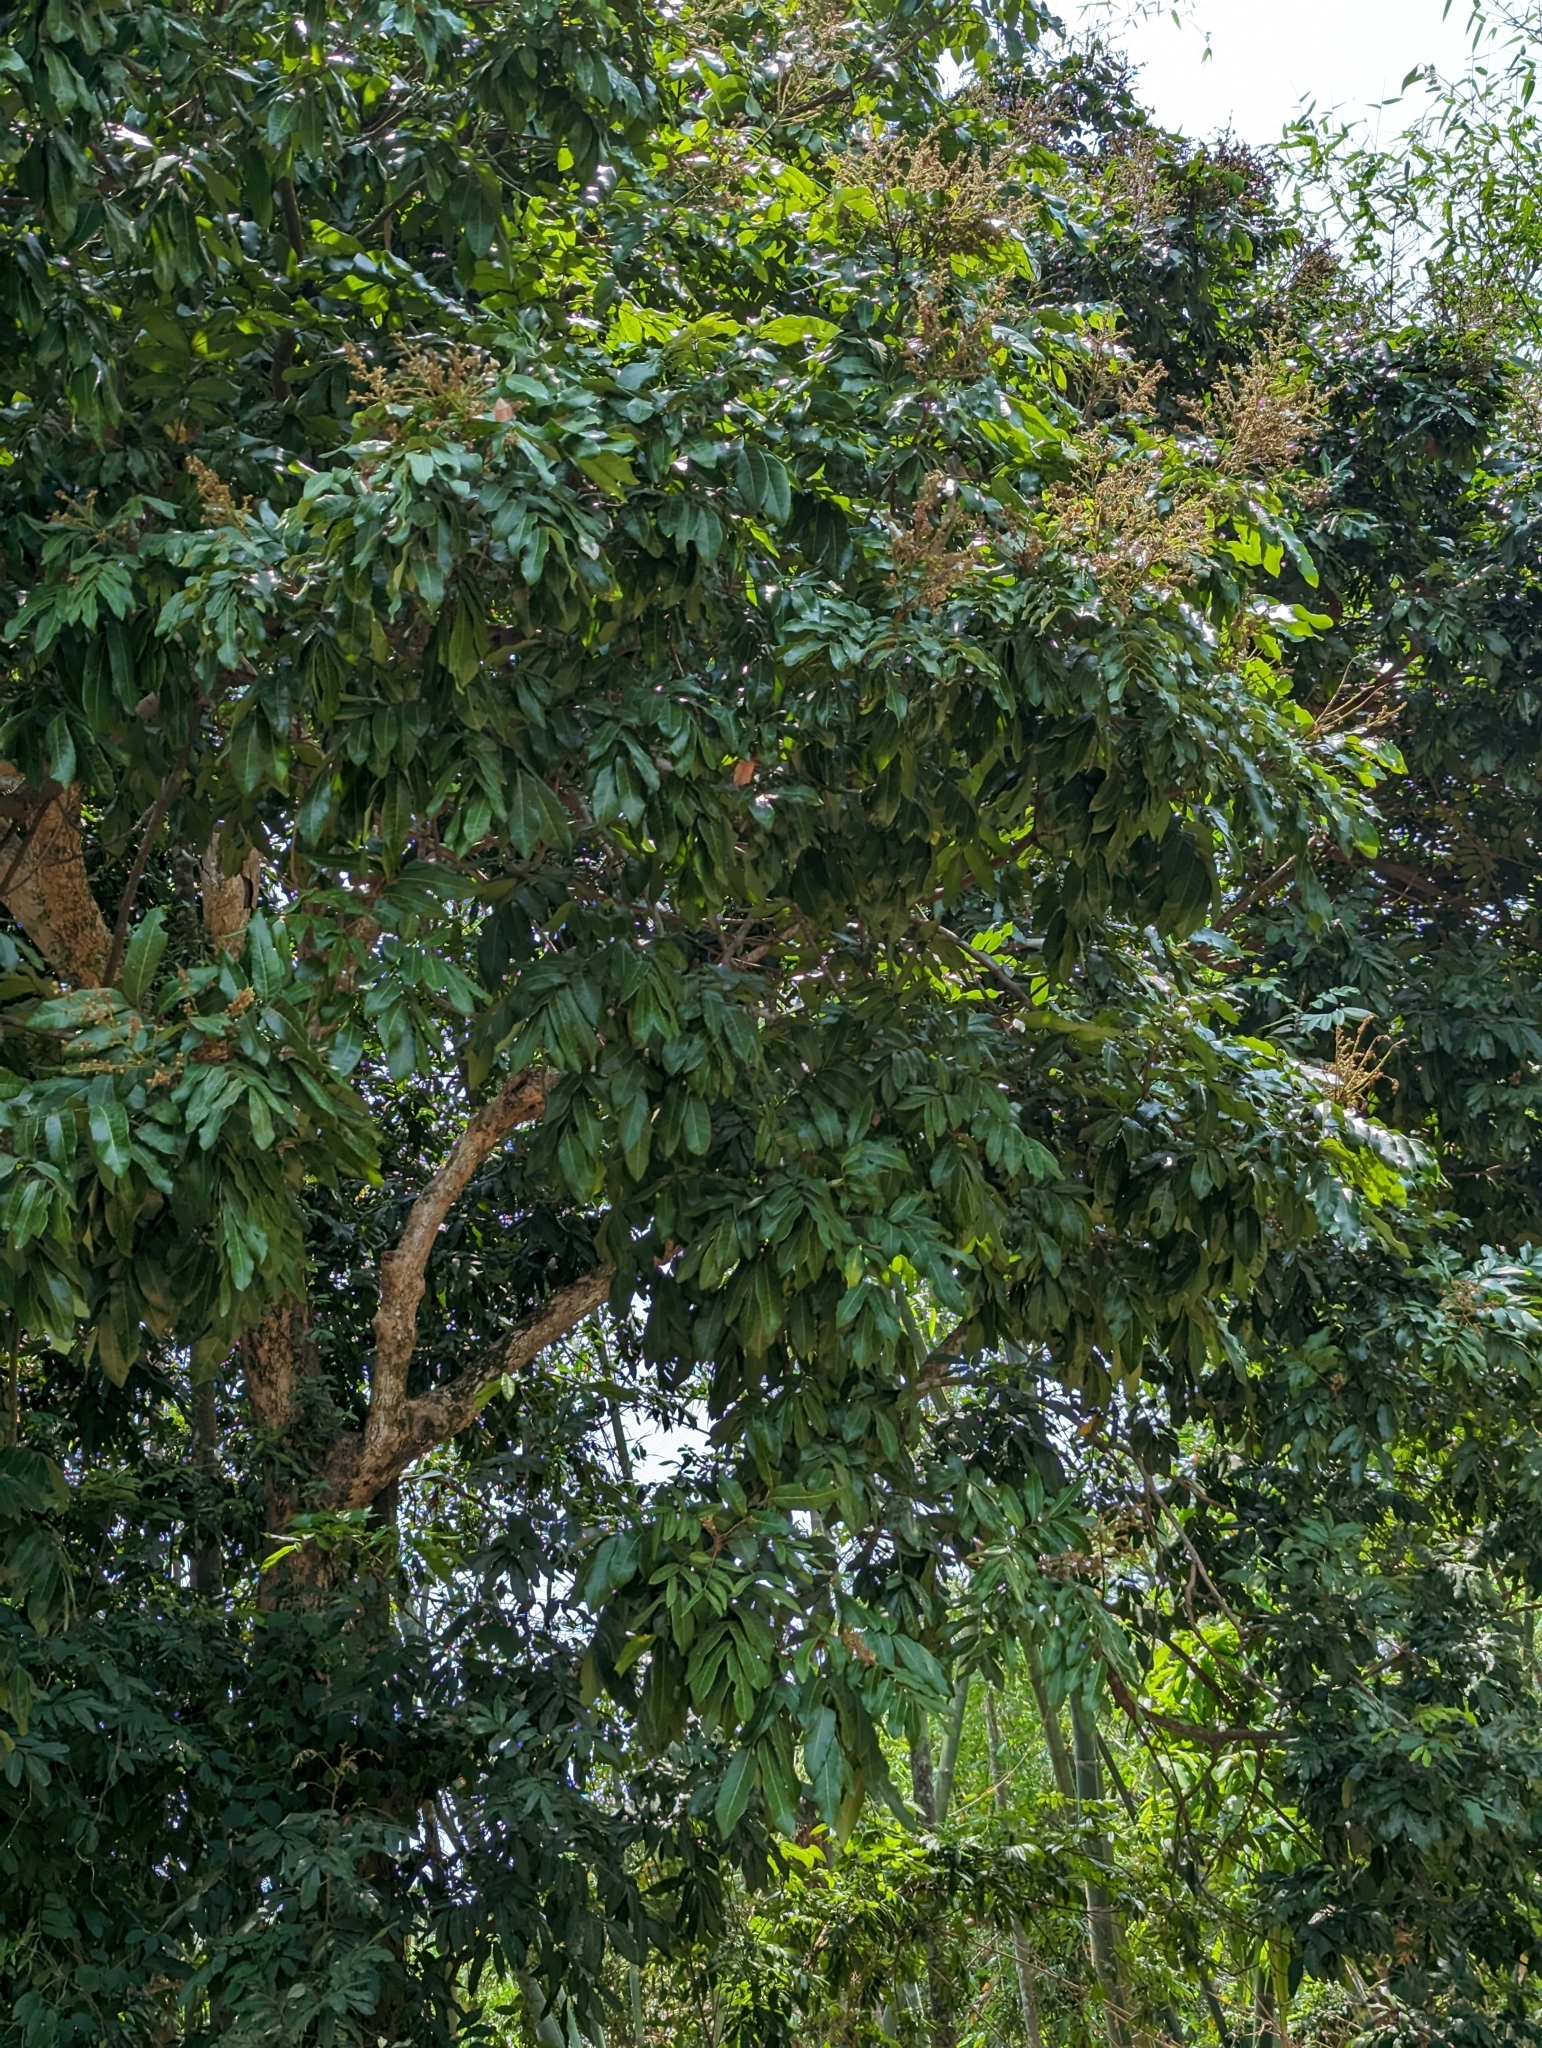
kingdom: Plantae
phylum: Tracheophyta
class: Magnoliopsida
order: Sapindales
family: Sapindaceae
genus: Dimocarpus
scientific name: Dimocarpus longan
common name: Longan
